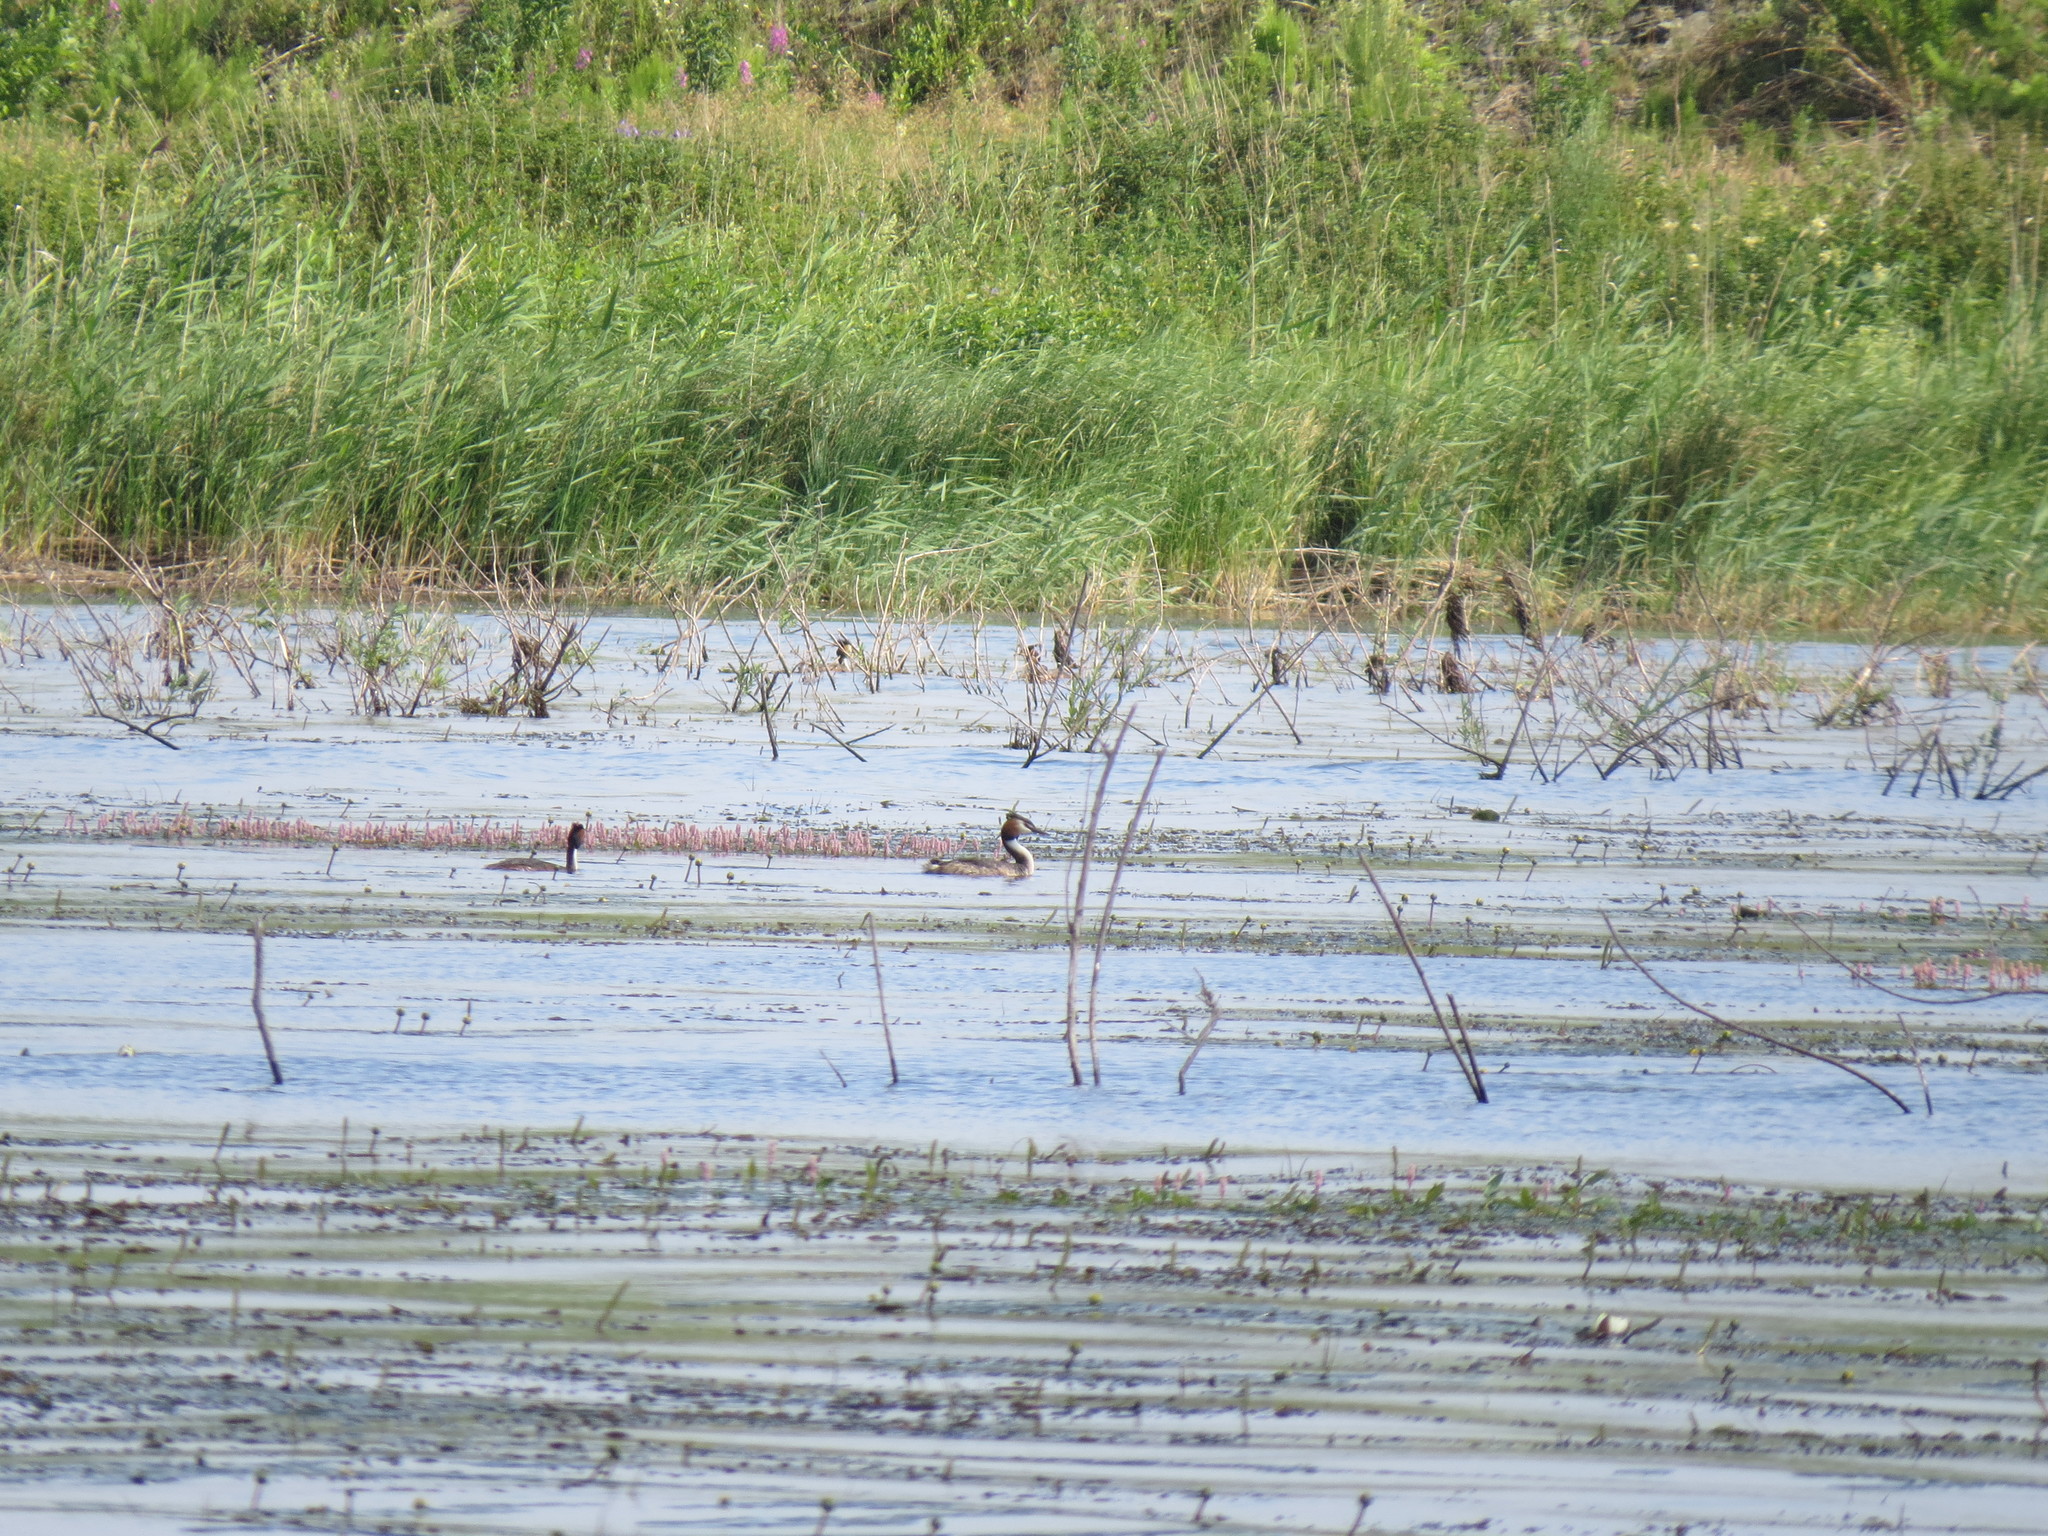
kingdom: Animalia
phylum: Chordata
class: Aves
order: Podicipediformes
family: Podicipedidae
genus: Podiceps
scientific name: Podiceps cristatus
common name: Great crested grebe
